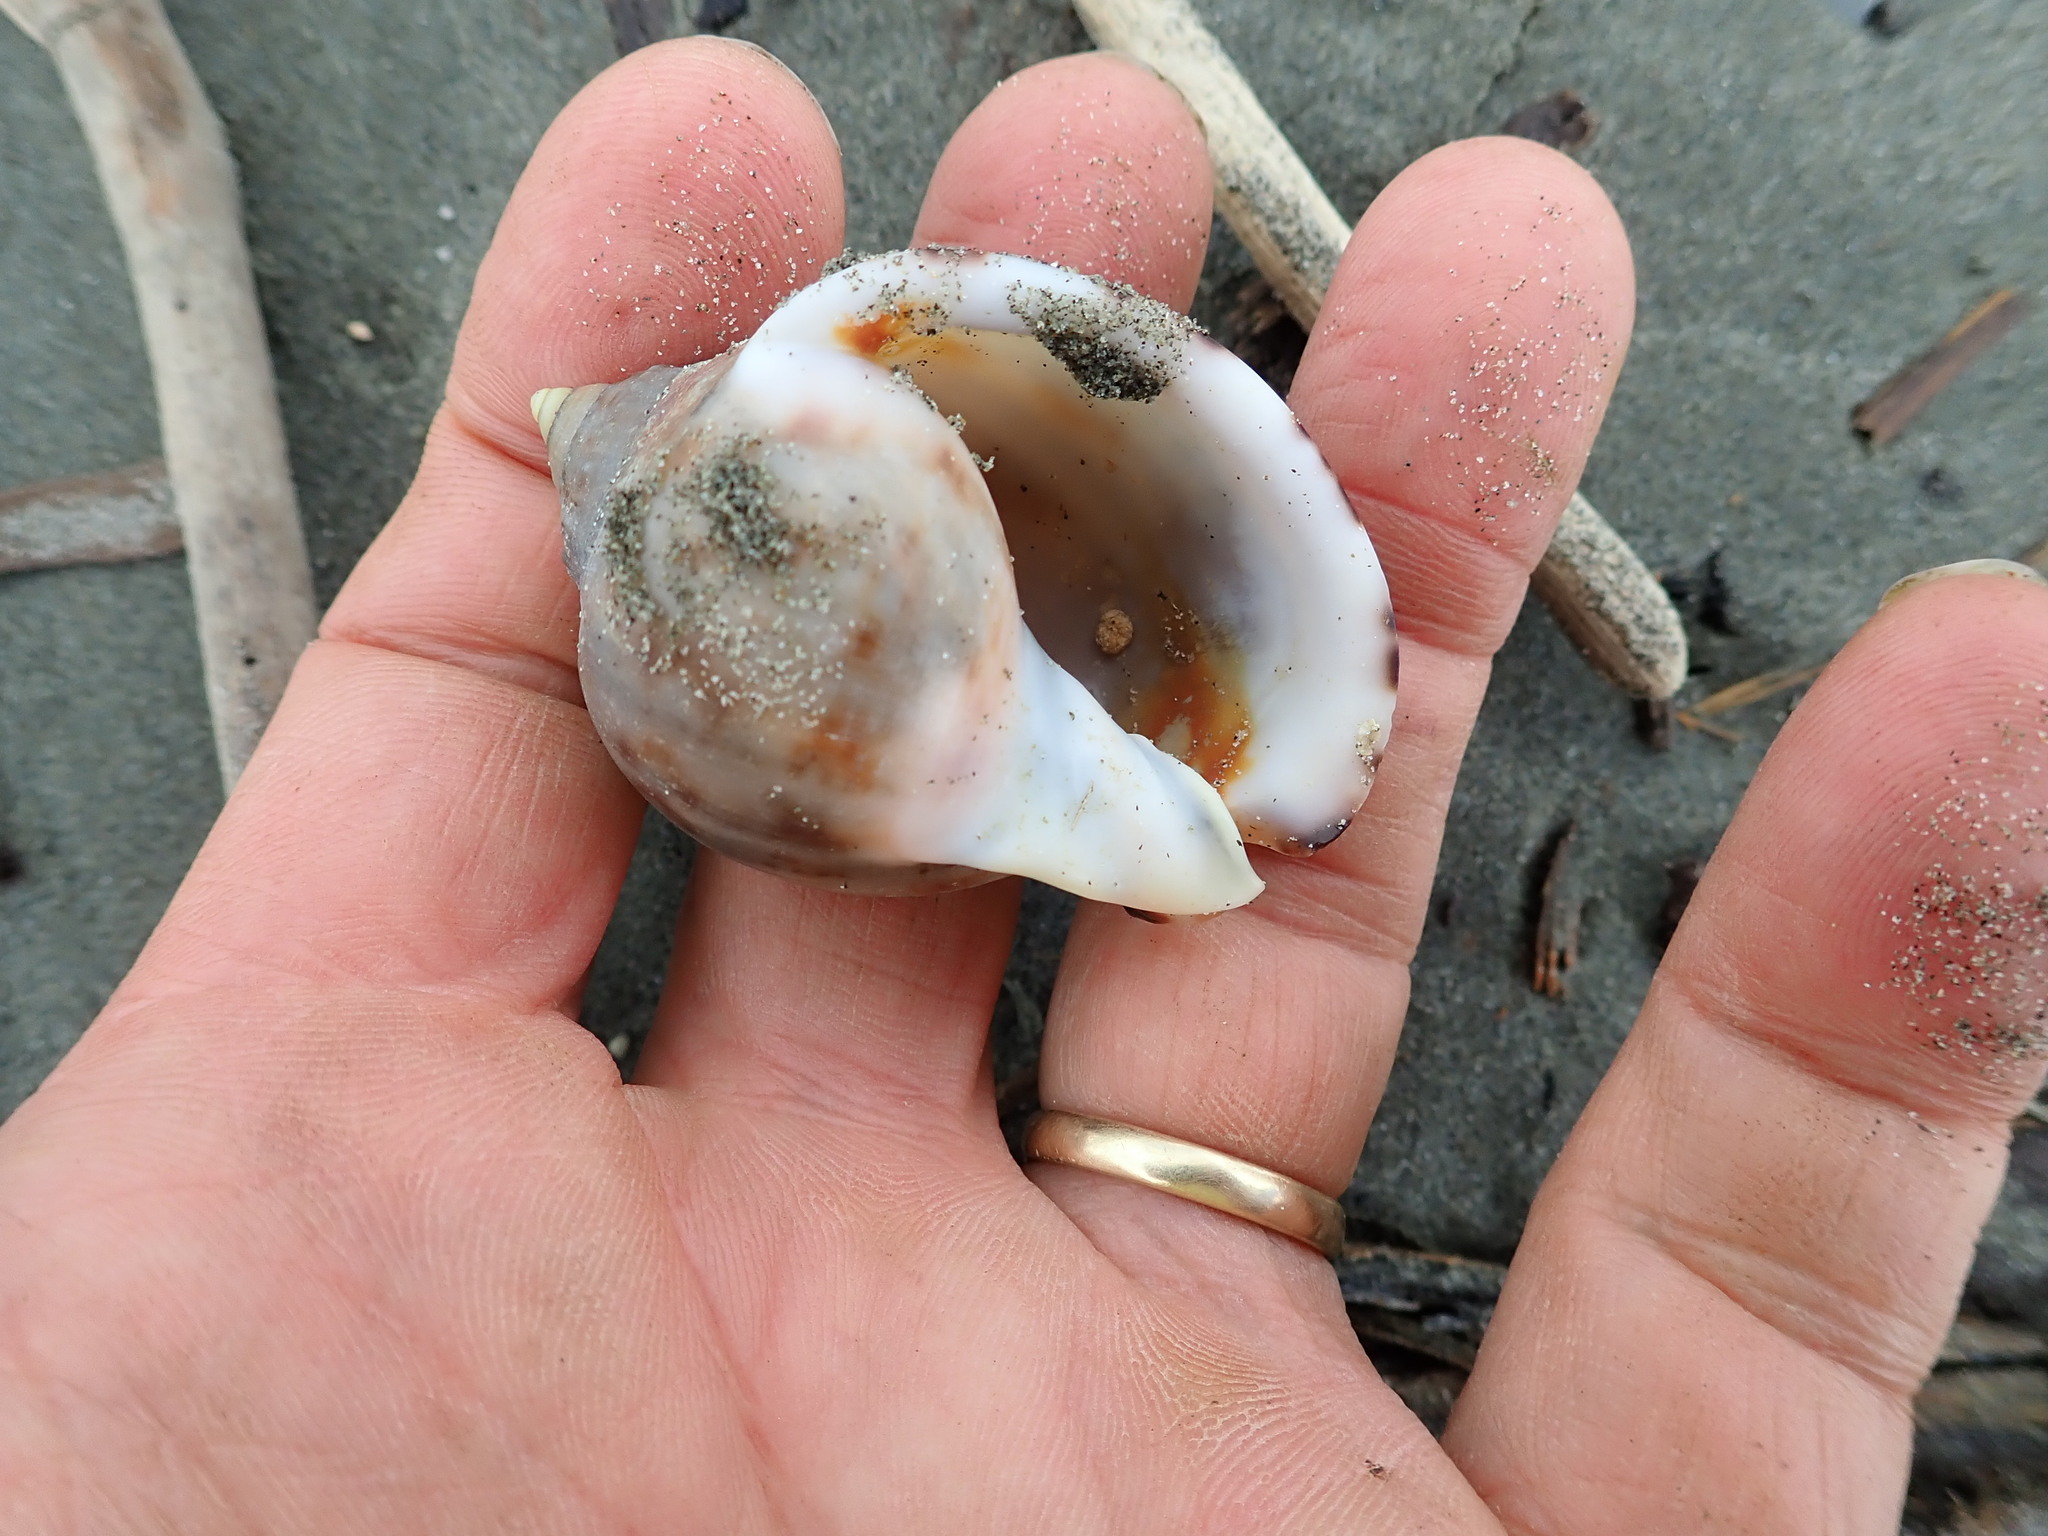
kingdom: Animalia
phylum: Mollusca
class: Gastropoda
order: Littorinimorpha
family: Cassidae
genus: Semicassis
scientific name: Semicassis pyrum
